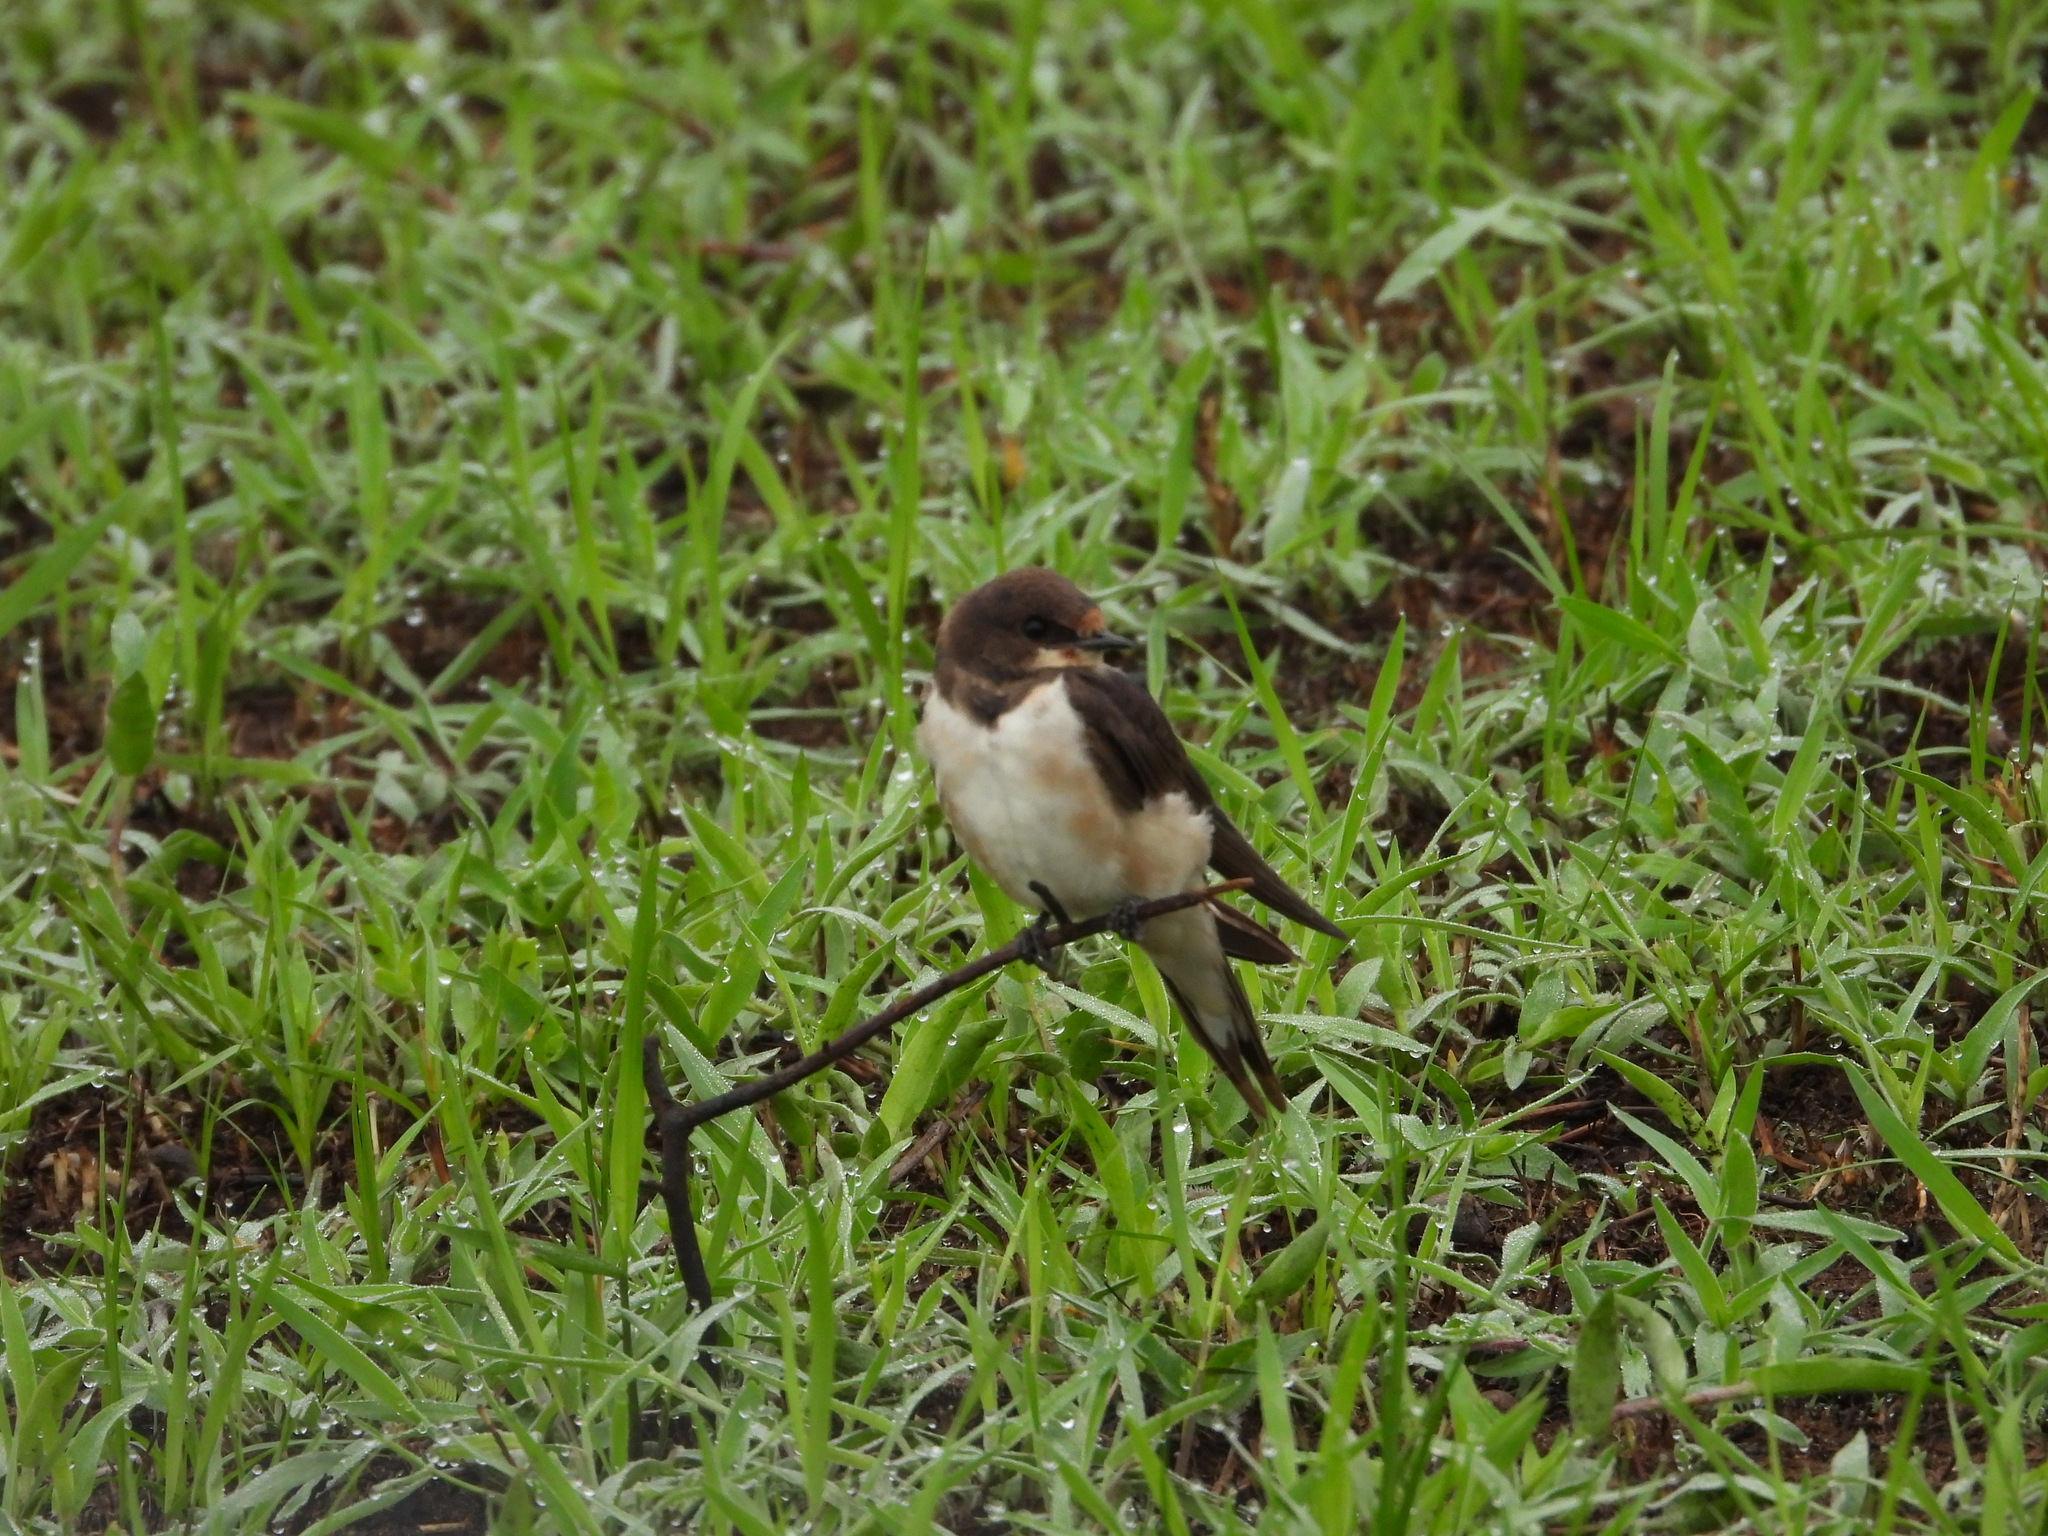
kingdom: Animalia
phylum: Chordata
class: Aves
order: Passeriformes
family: Hirundinidae
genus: Hirundo
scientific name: Hirundo rustica
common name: Barn swallow
